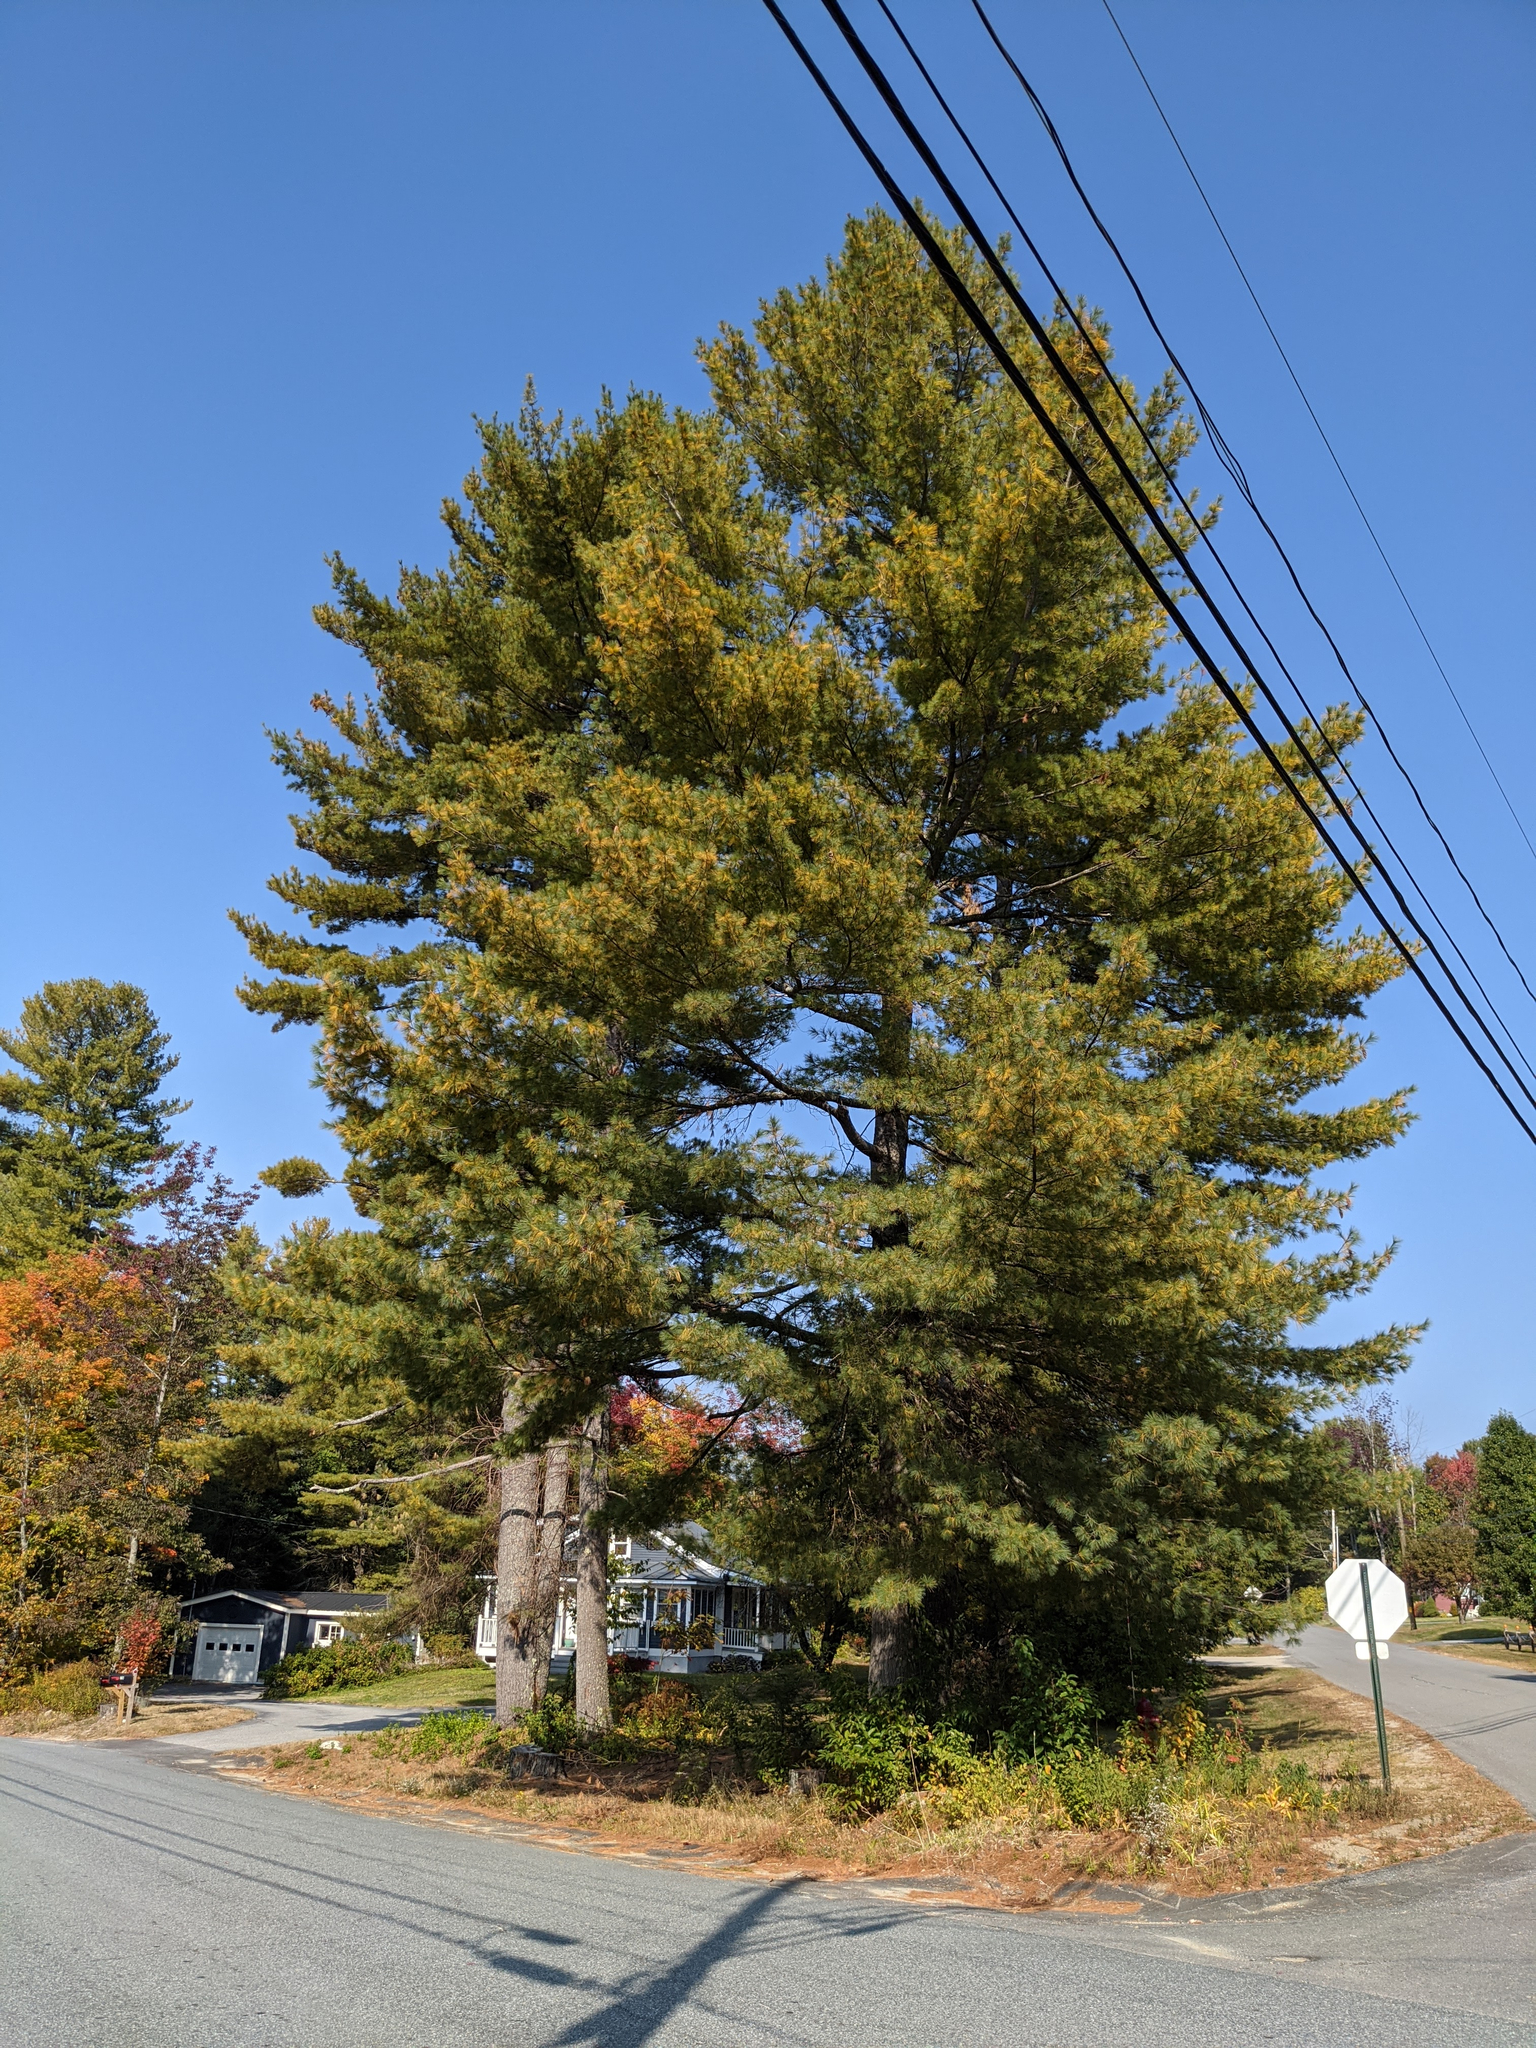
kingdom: Plantae
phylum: Tracheophyta
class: Pinopsida
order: Pinales
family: Pinaceae
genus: Pinus
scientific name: Pinus strobus
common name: Weymouth pine
